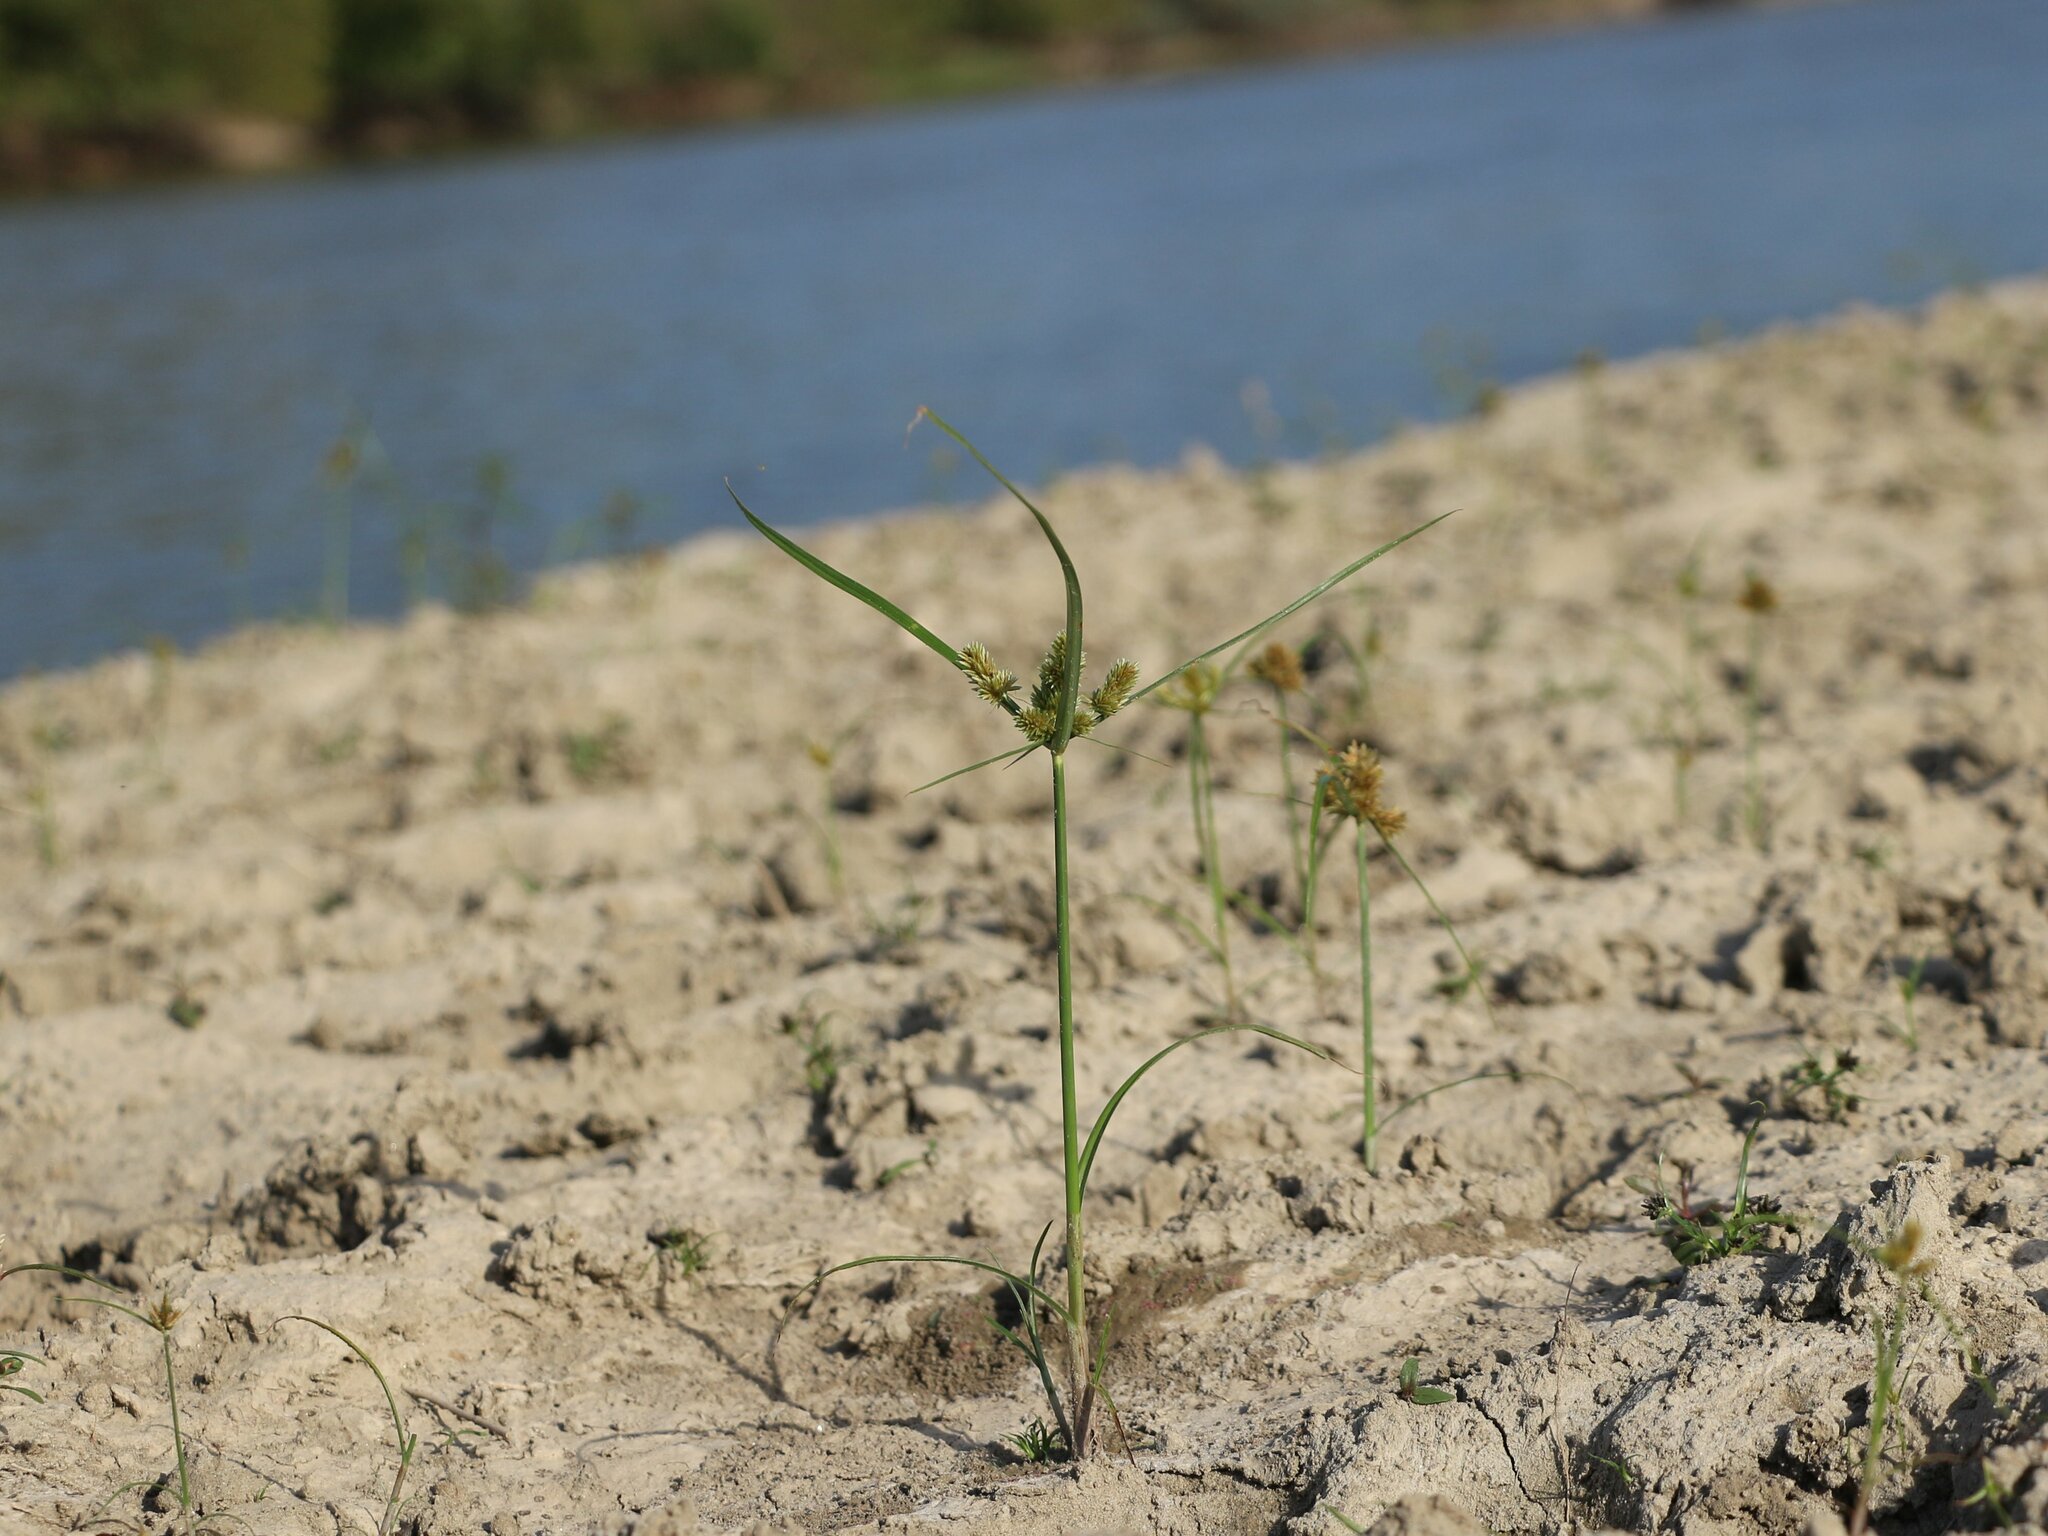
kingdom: Plantae
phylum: Tracheophyta
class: Liliopsida
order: Poales
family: Cyperaceae
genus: Cyperus
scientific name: Cyperus glomeratus
